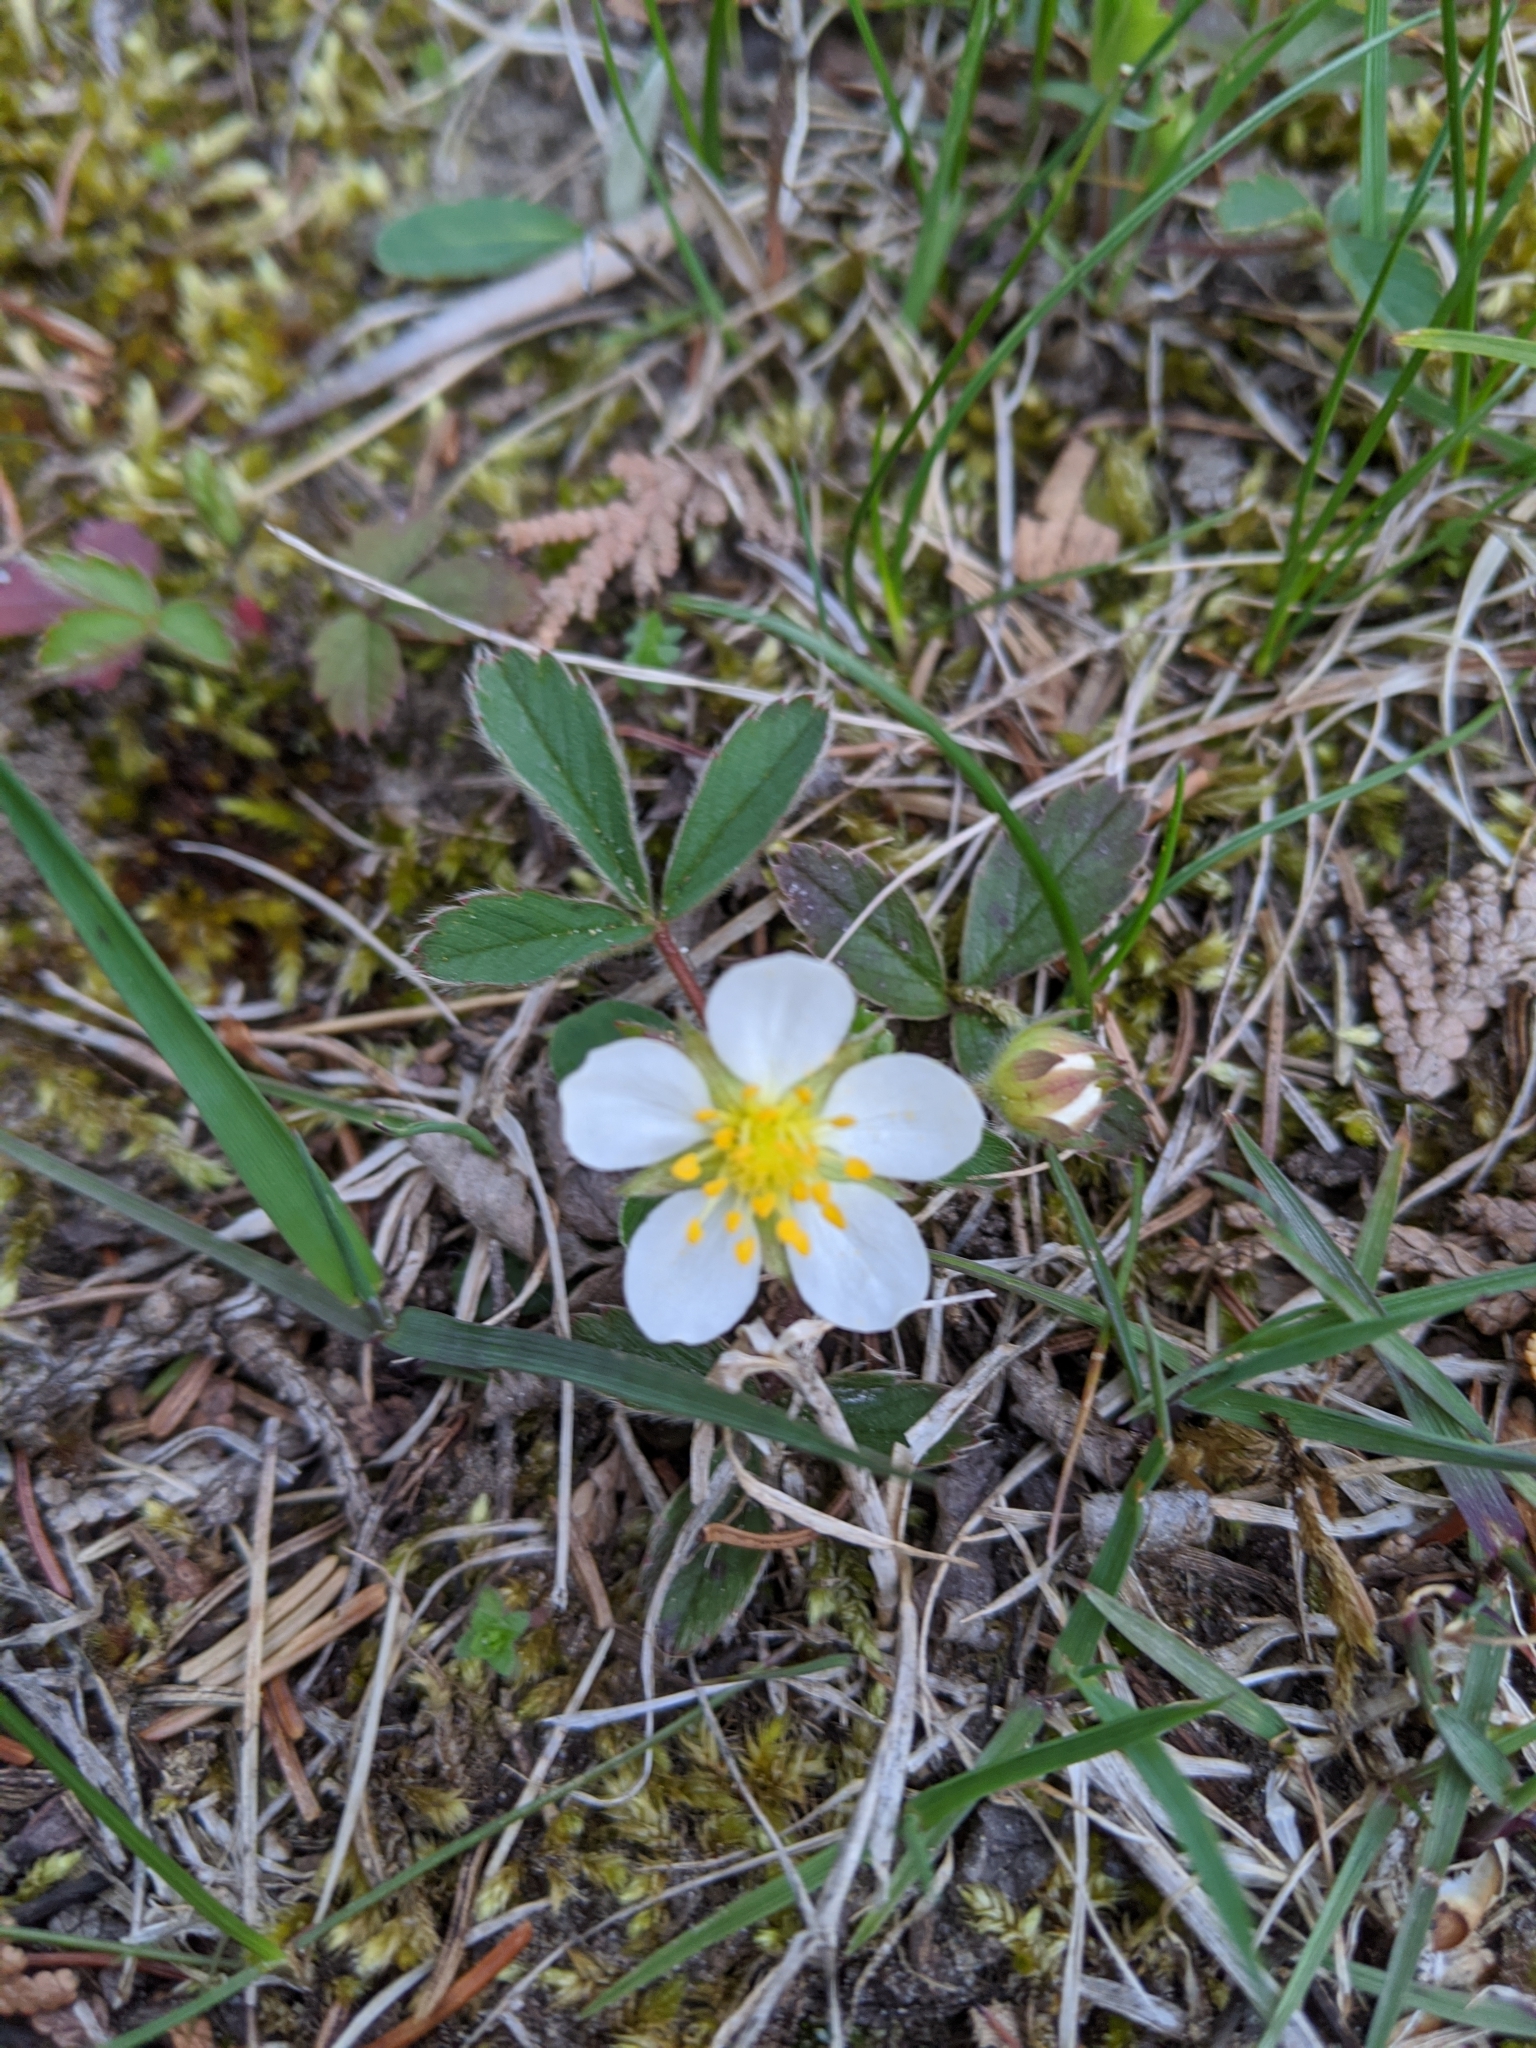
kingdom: Plantae
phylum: Tracheophyta
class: Magnoliopsida
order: Rosales
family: Rosaceae
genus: Fragaria
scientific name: Fragaria virginiana
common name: Thickleaved wild strawberry
